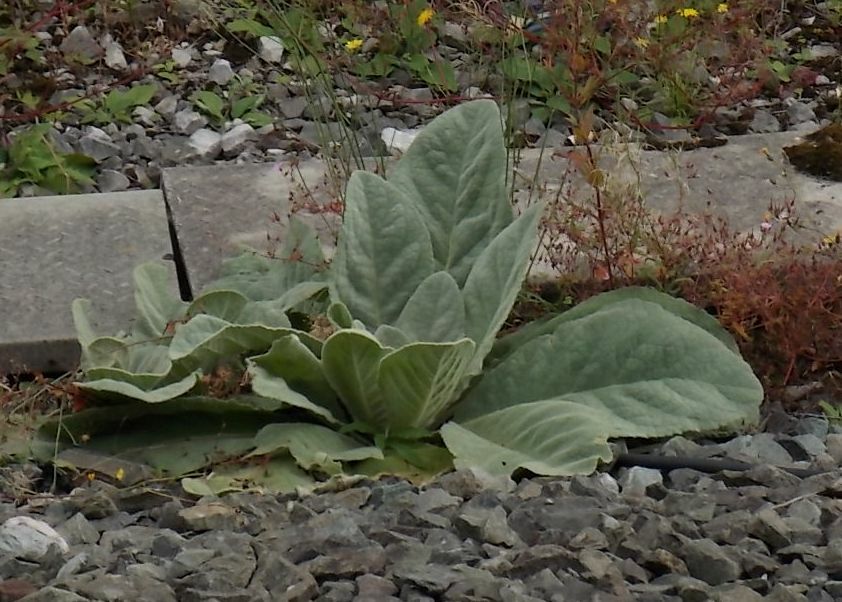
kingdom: Plantae
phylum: Tracheophyta
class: Magnoliopsida
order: Lamiales
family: Scrophulariaceae
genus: Verbascum
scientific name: Verbascum thapsus
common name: Common mullein
